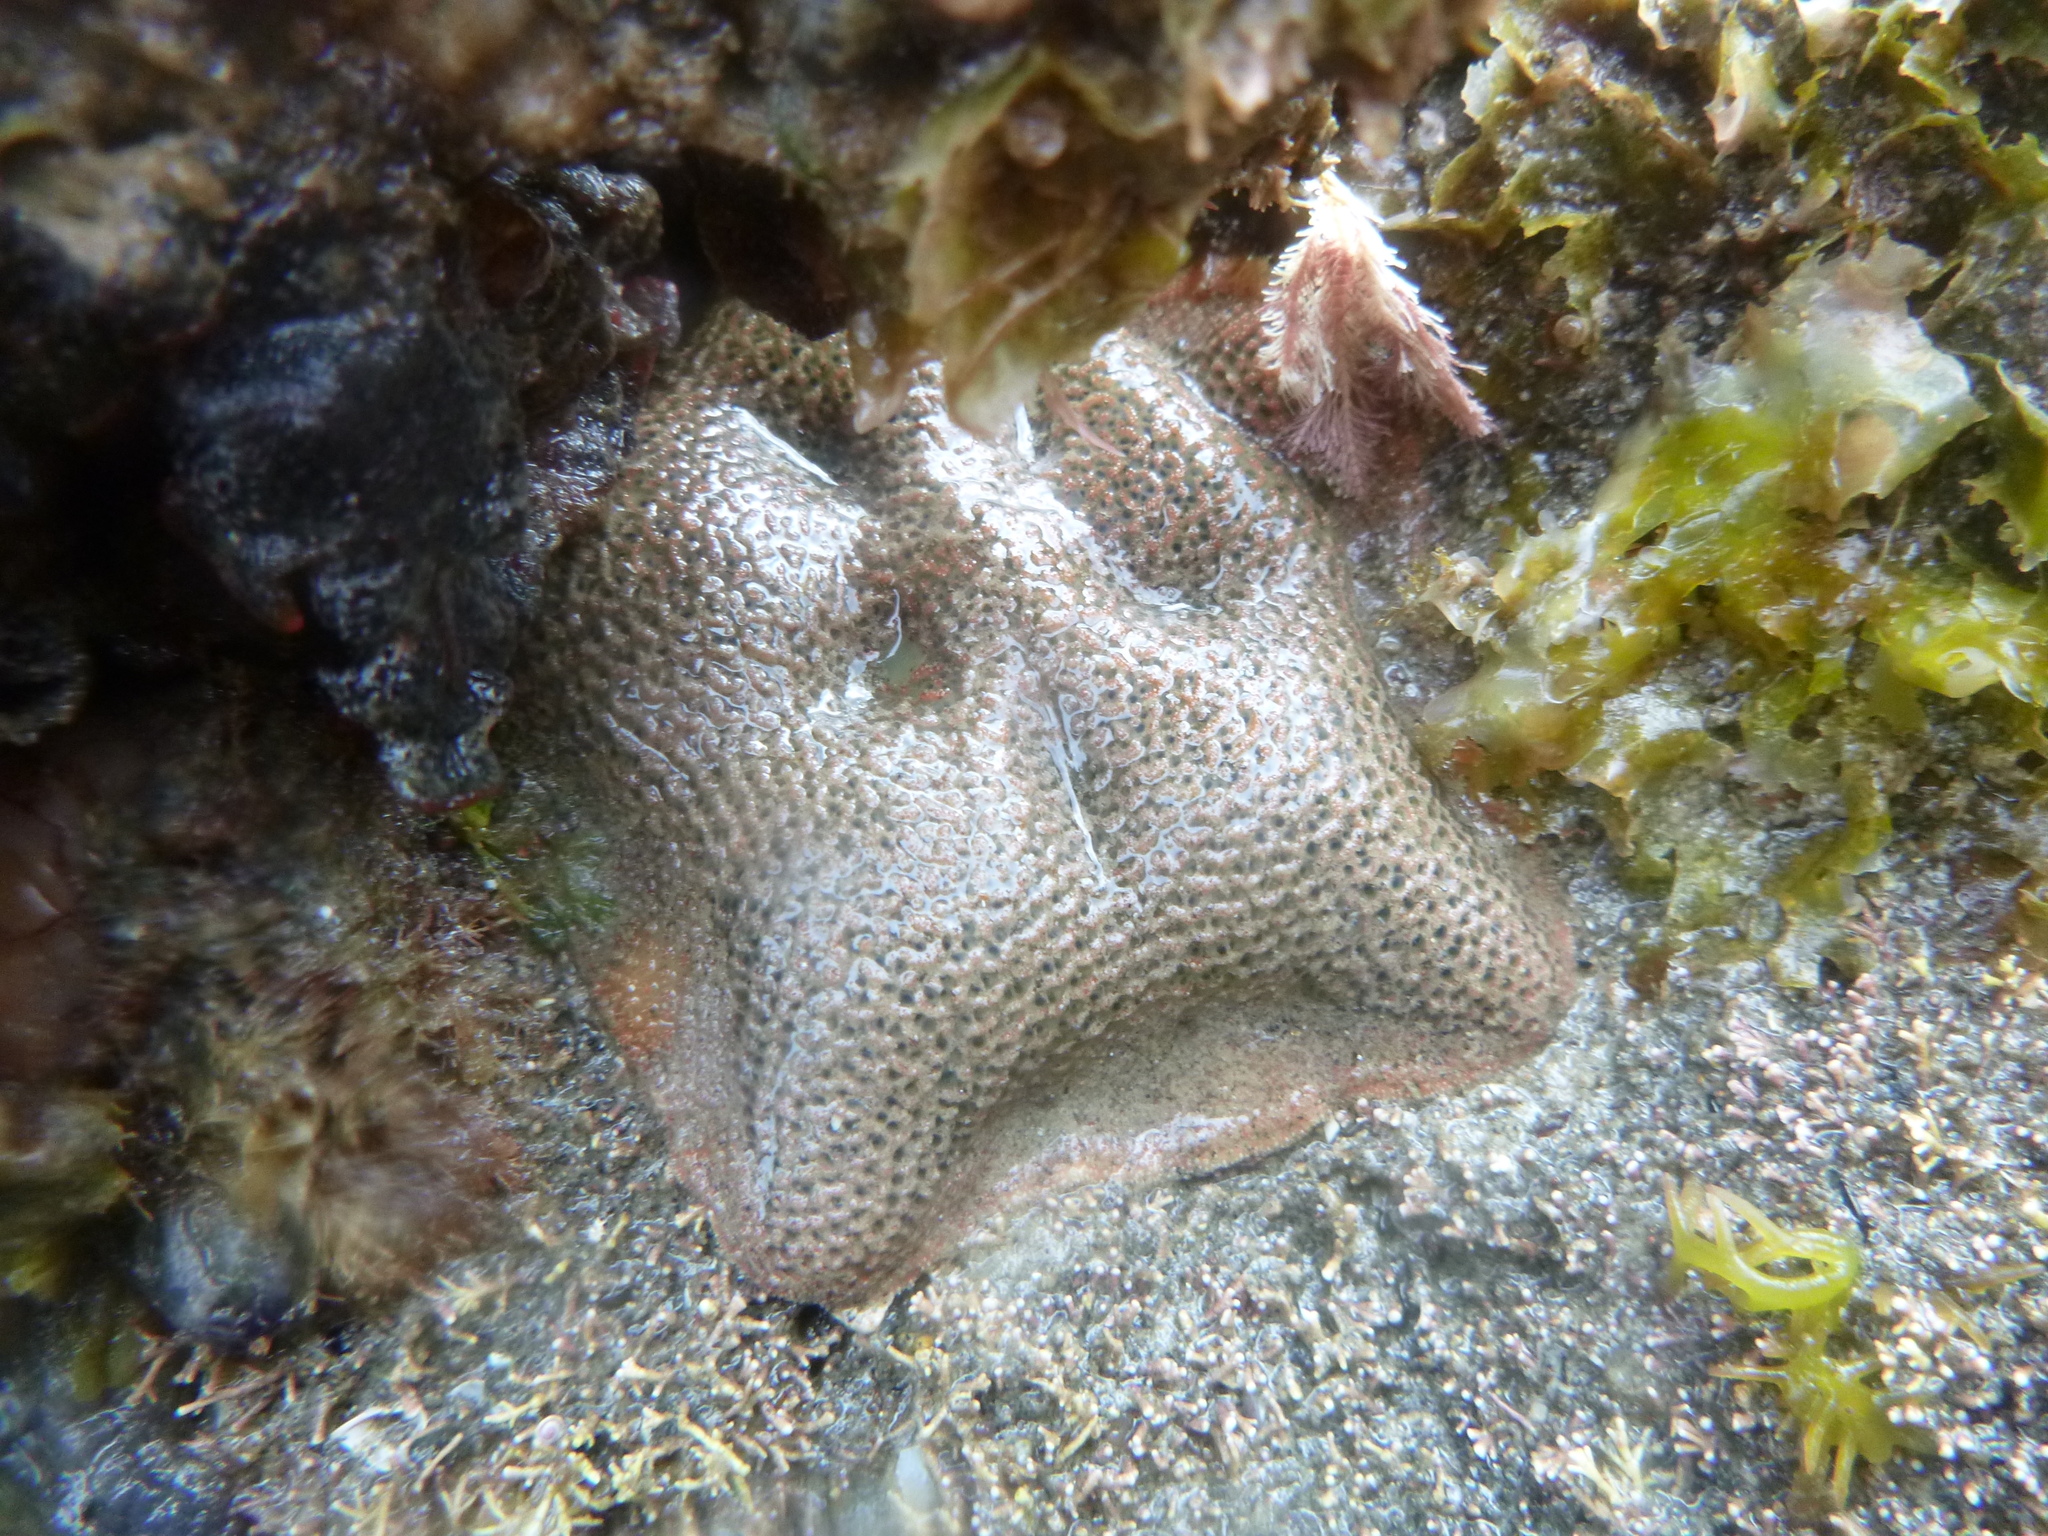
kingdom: Animalia
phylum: Echinodermata
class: Asteroidea
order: Valvatida
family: Asterinidae
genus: Patiriella
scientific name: Patiriella regularis
